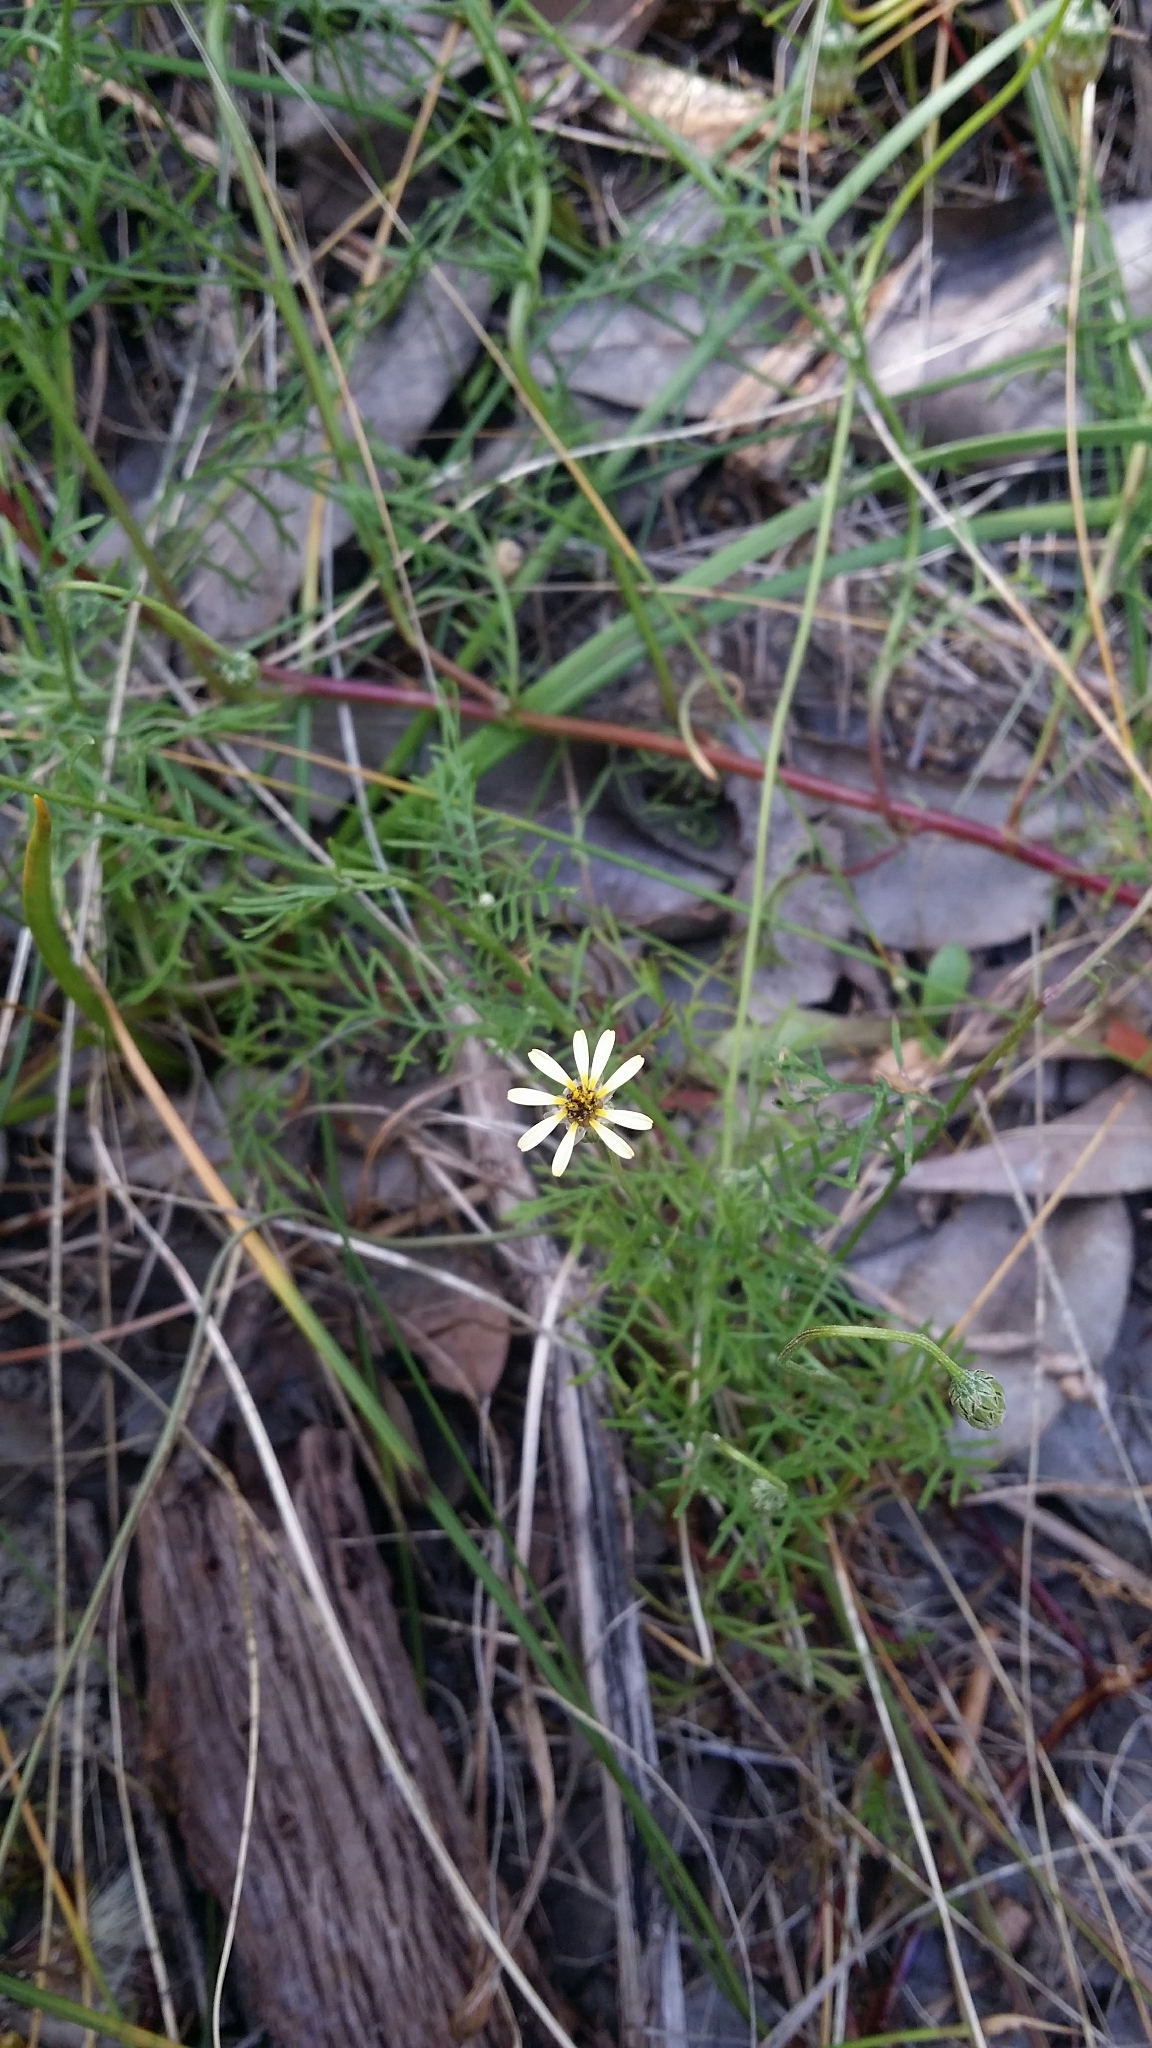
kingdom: Plantae
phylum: Tracheophyta
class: Magnoliopsida
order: Asterales
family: Asteraceae
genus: Ursinia
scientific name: Ursinia anthemoides
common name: Ursinia
